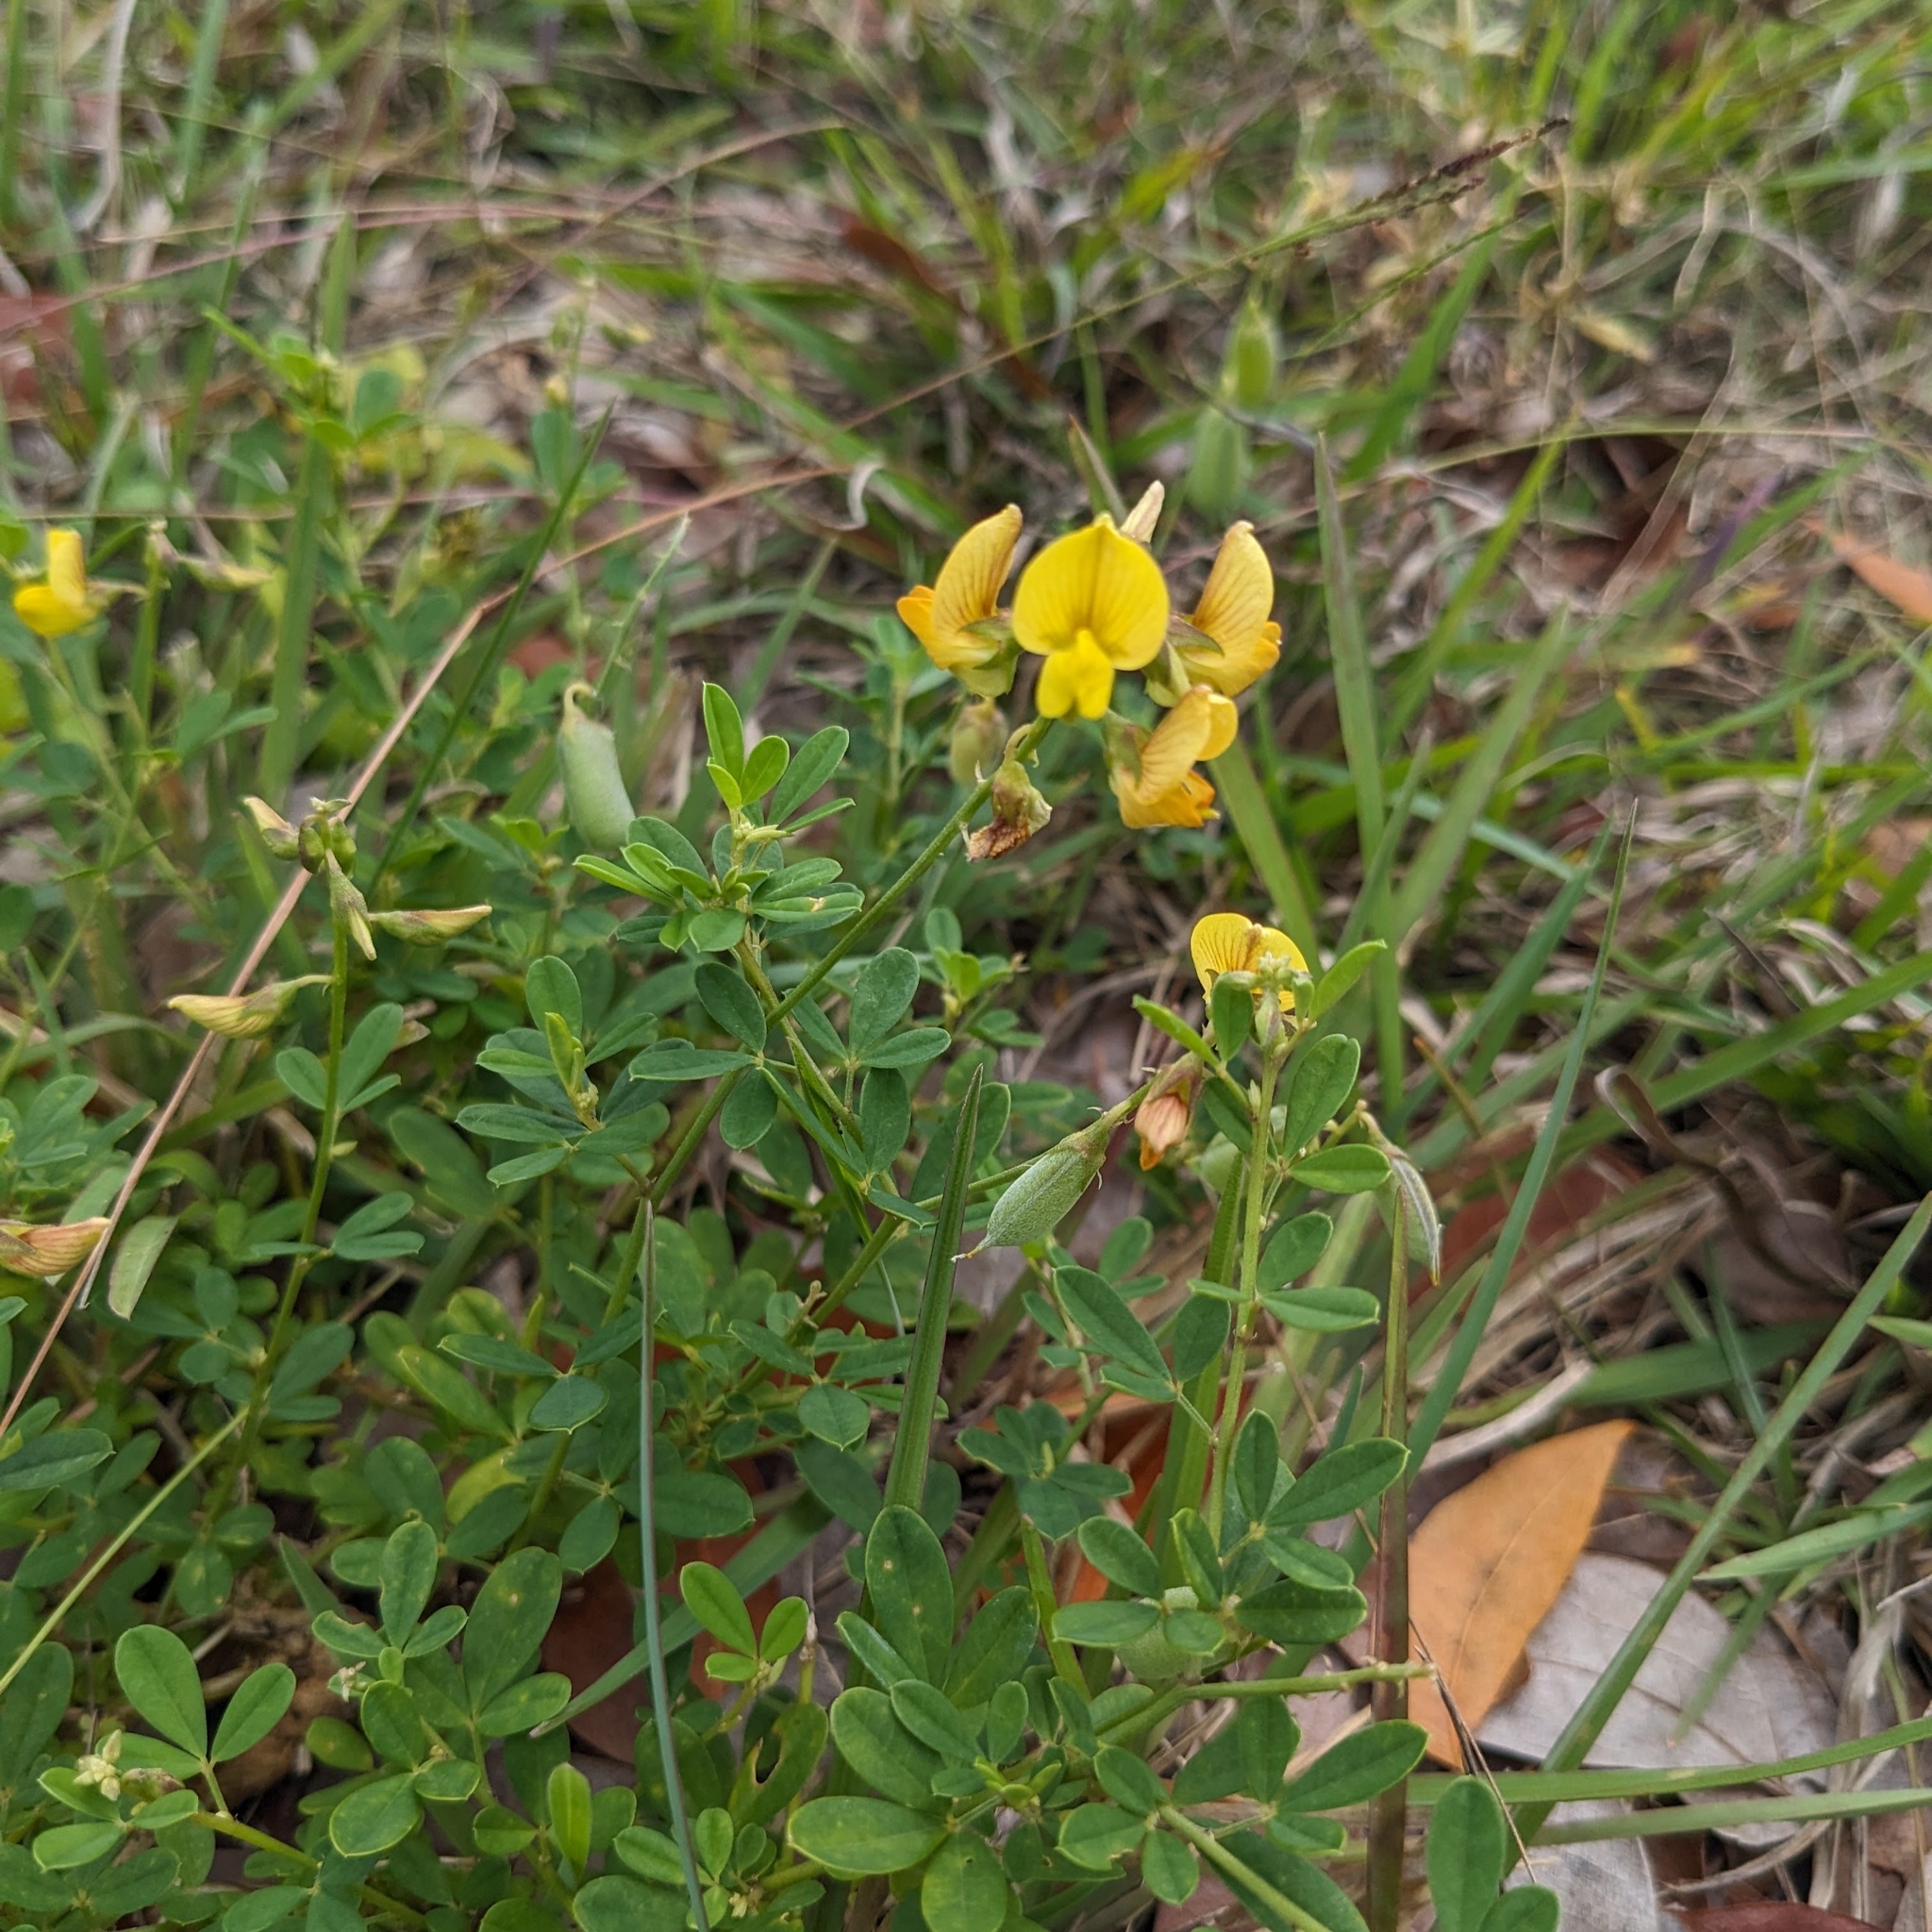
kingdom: Plantae
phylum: Tracheophyta
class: Magnoliopsida
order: Fabales
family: Fabaceae
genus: Crotalaria
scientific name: Crotalaria pumila
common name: Low rattlebox
